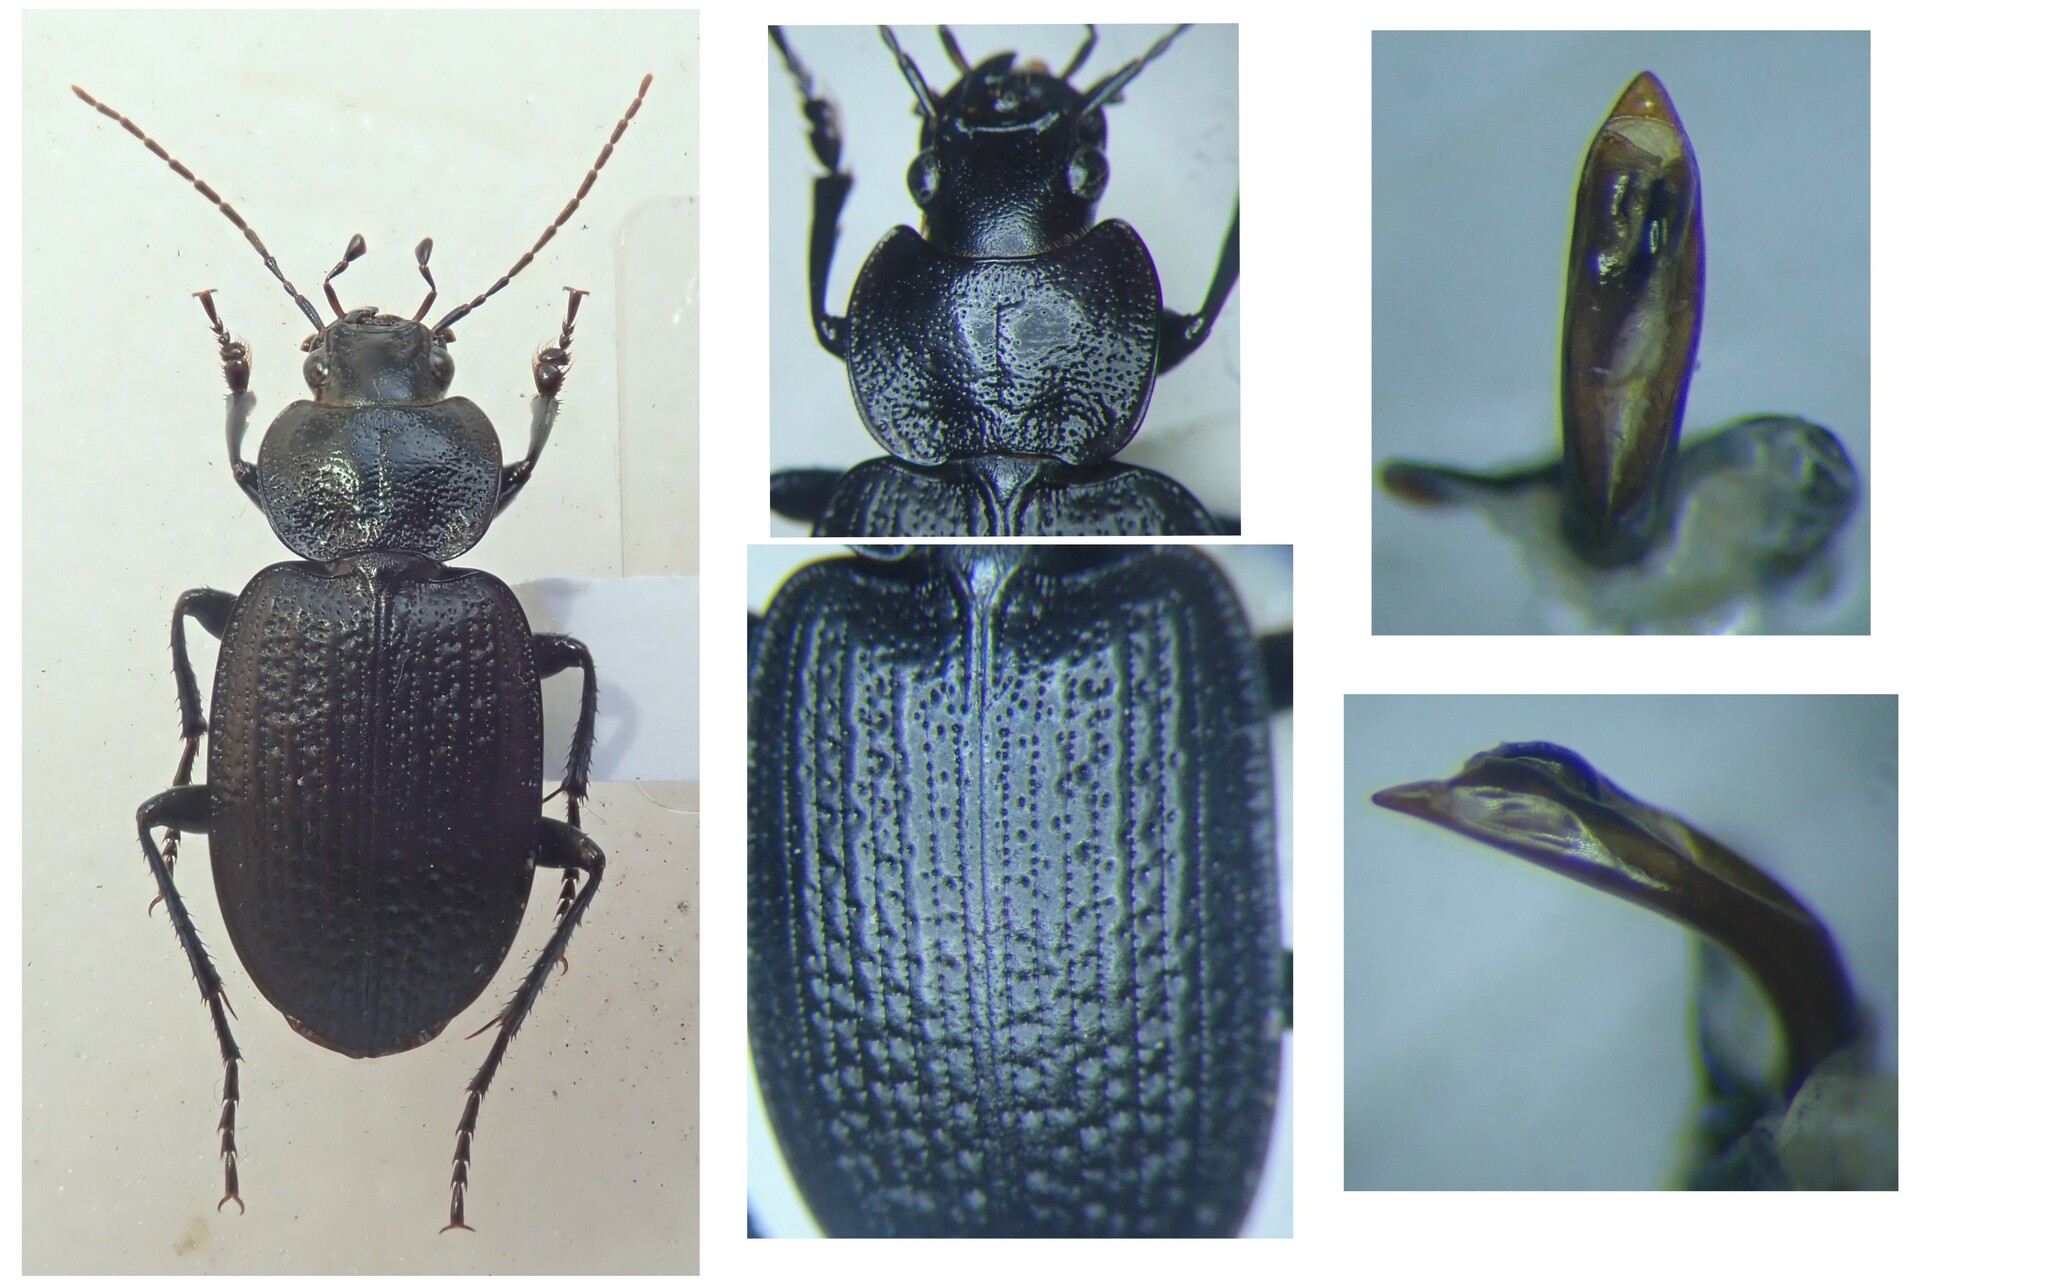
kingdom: Animalia
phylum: Arthropoda
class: Insecta
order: Coleoptera
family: Carabidae
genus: Licinus
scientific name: Licinus punctatulus
